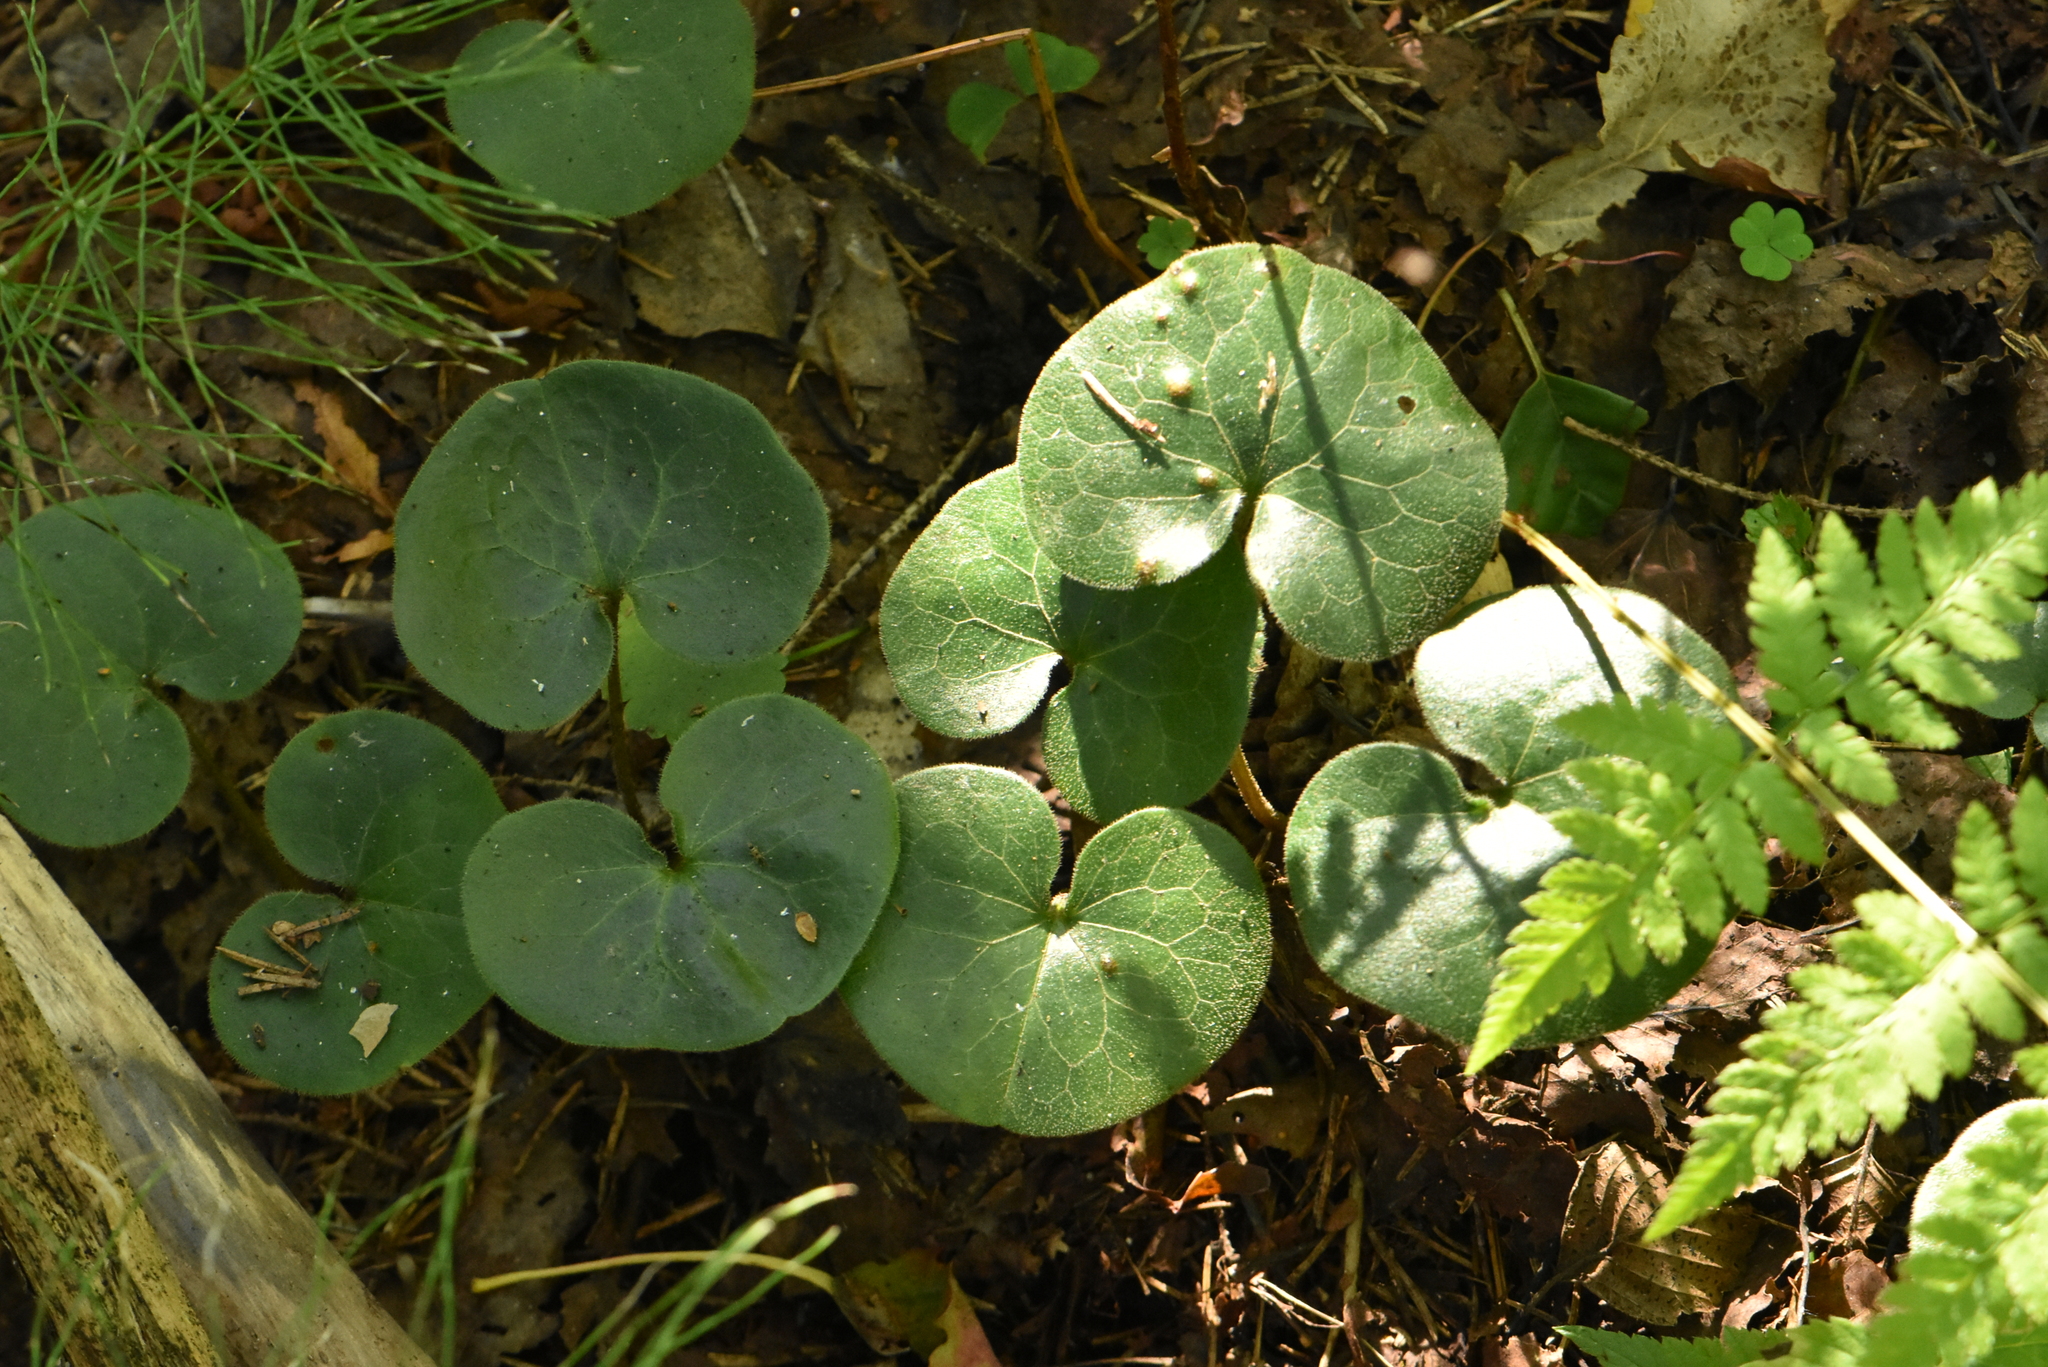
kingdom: Plantae
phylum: Tracheophyta
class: Magnoliopsida
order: Piperales
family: Aristolochiaceae
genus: Asarum
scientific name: Asarum europaeum
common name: Asarabacca
